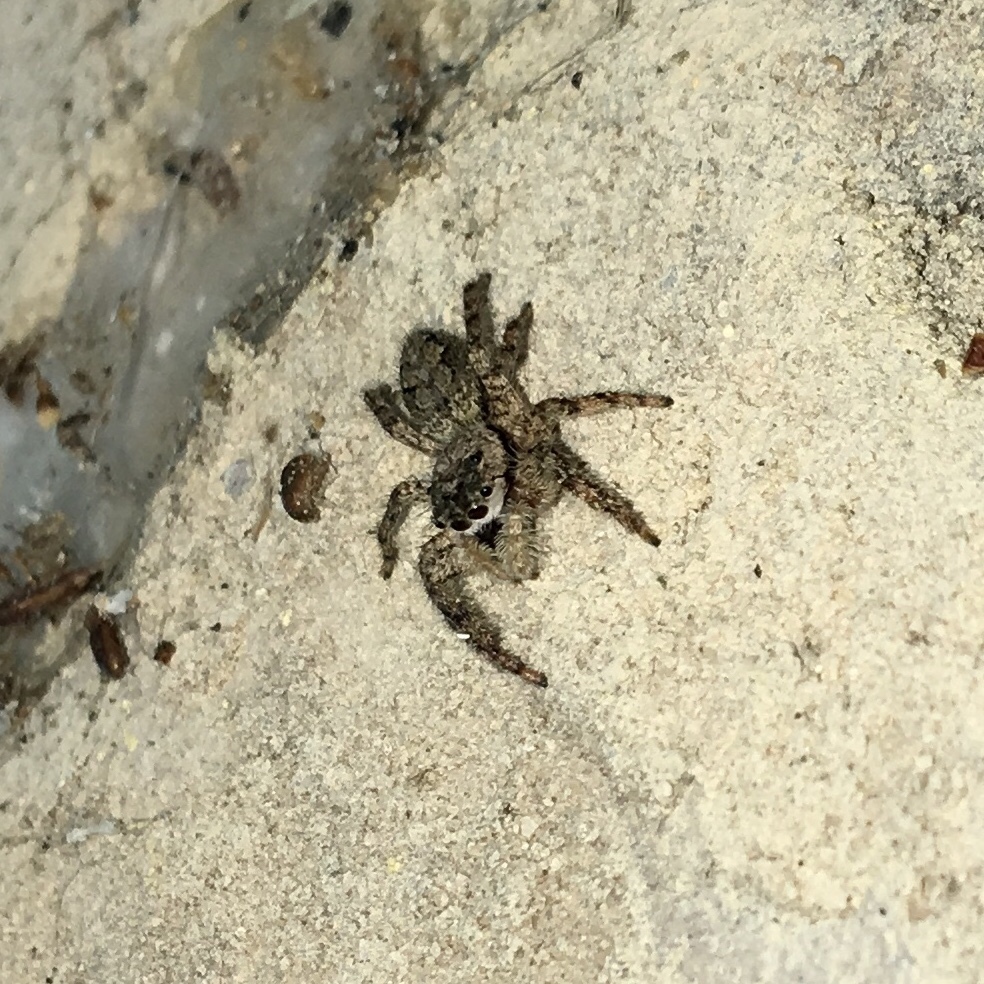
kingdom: Animalia
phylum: Arthropoda
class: Arachnida
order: Araneae
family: Salticidae
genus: Platycryptus
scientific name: Platycryptus undatus
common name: Tan jumping spider
